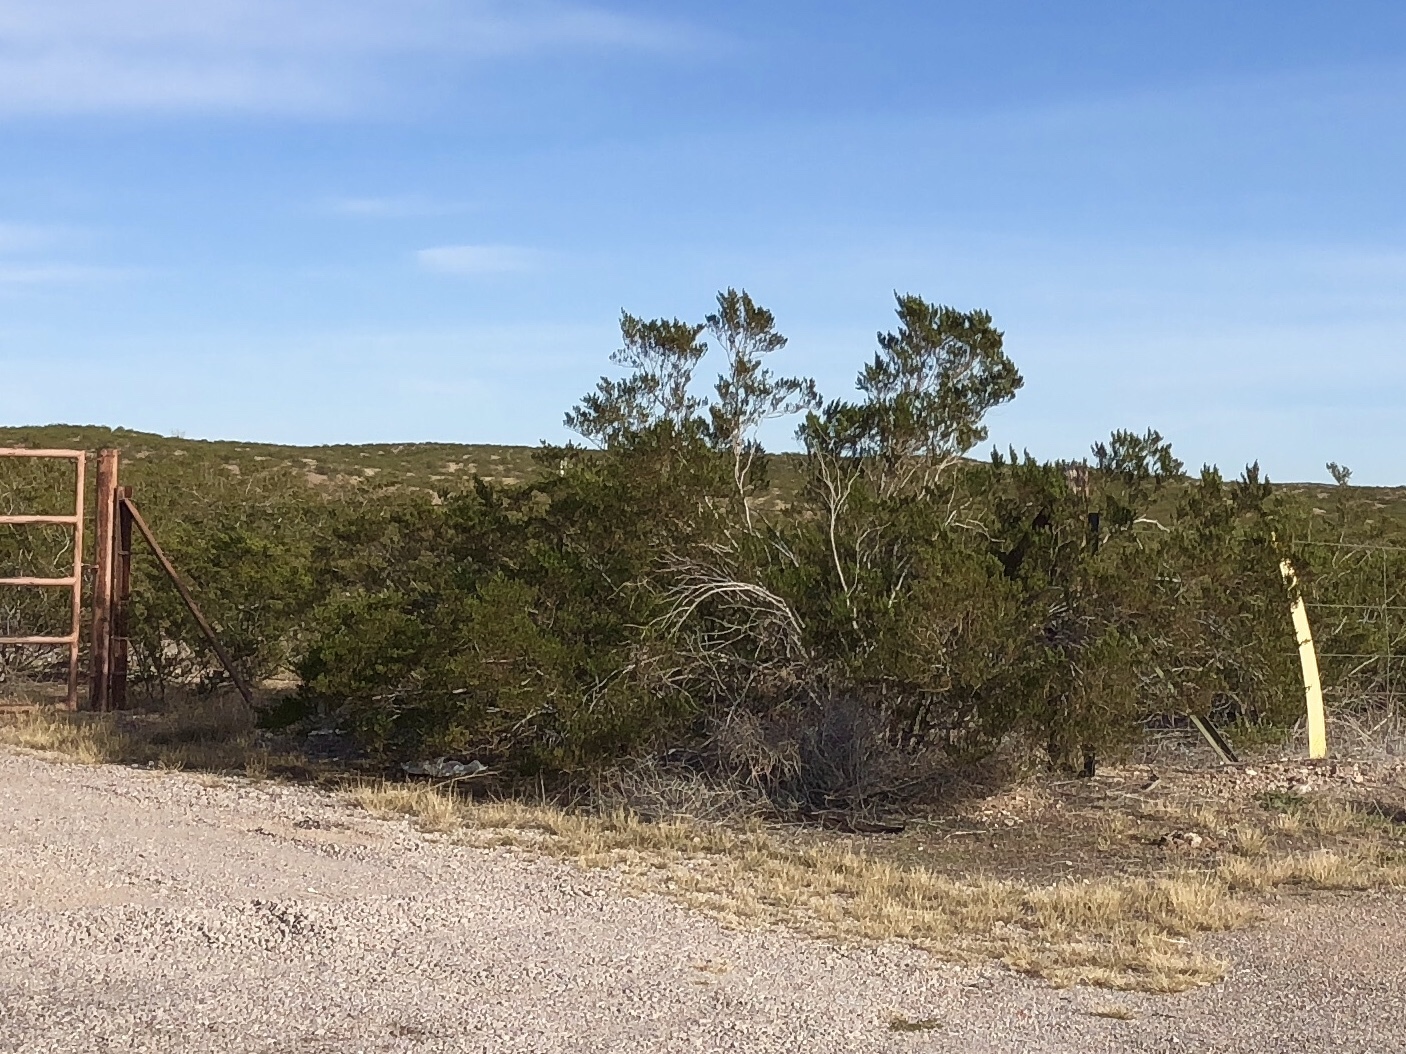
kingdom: Plantae
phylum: Tracheophyta
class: Magnoliopsida
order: Zygophyllales
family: Zygophyllaceae
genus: Larrea
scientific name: Larrea tridentata
